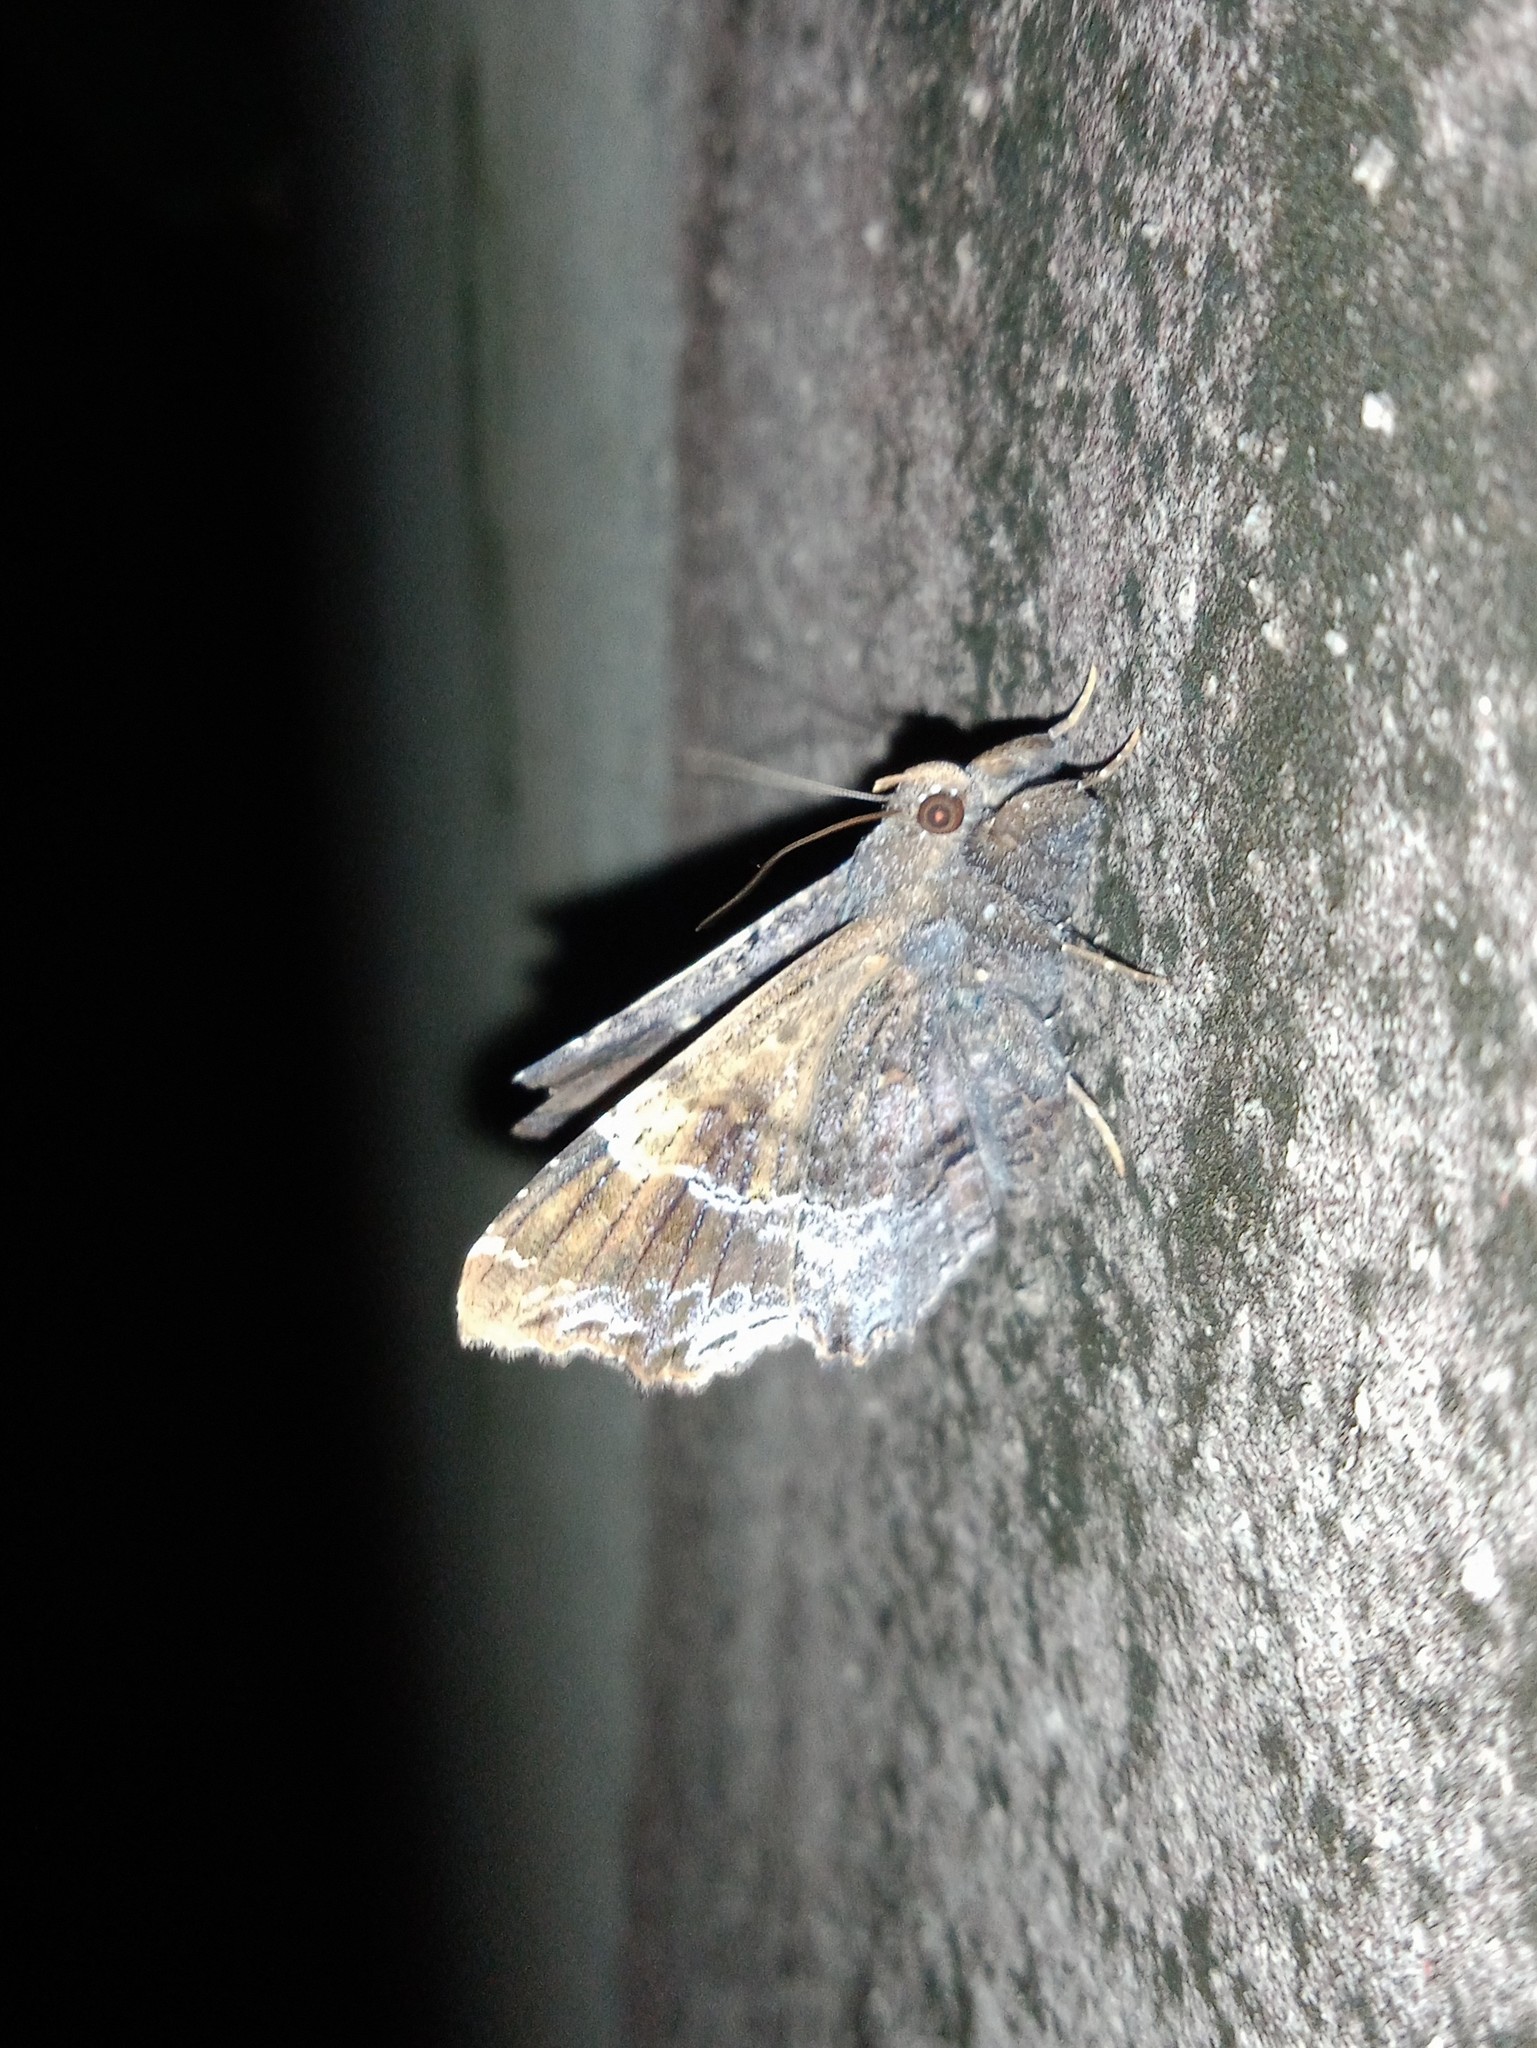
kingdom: Animalia
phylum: Arthropoda
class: Insecta
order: Lepidoptera
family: Erebidae
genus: Lacera
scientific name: Lacera noctilio
